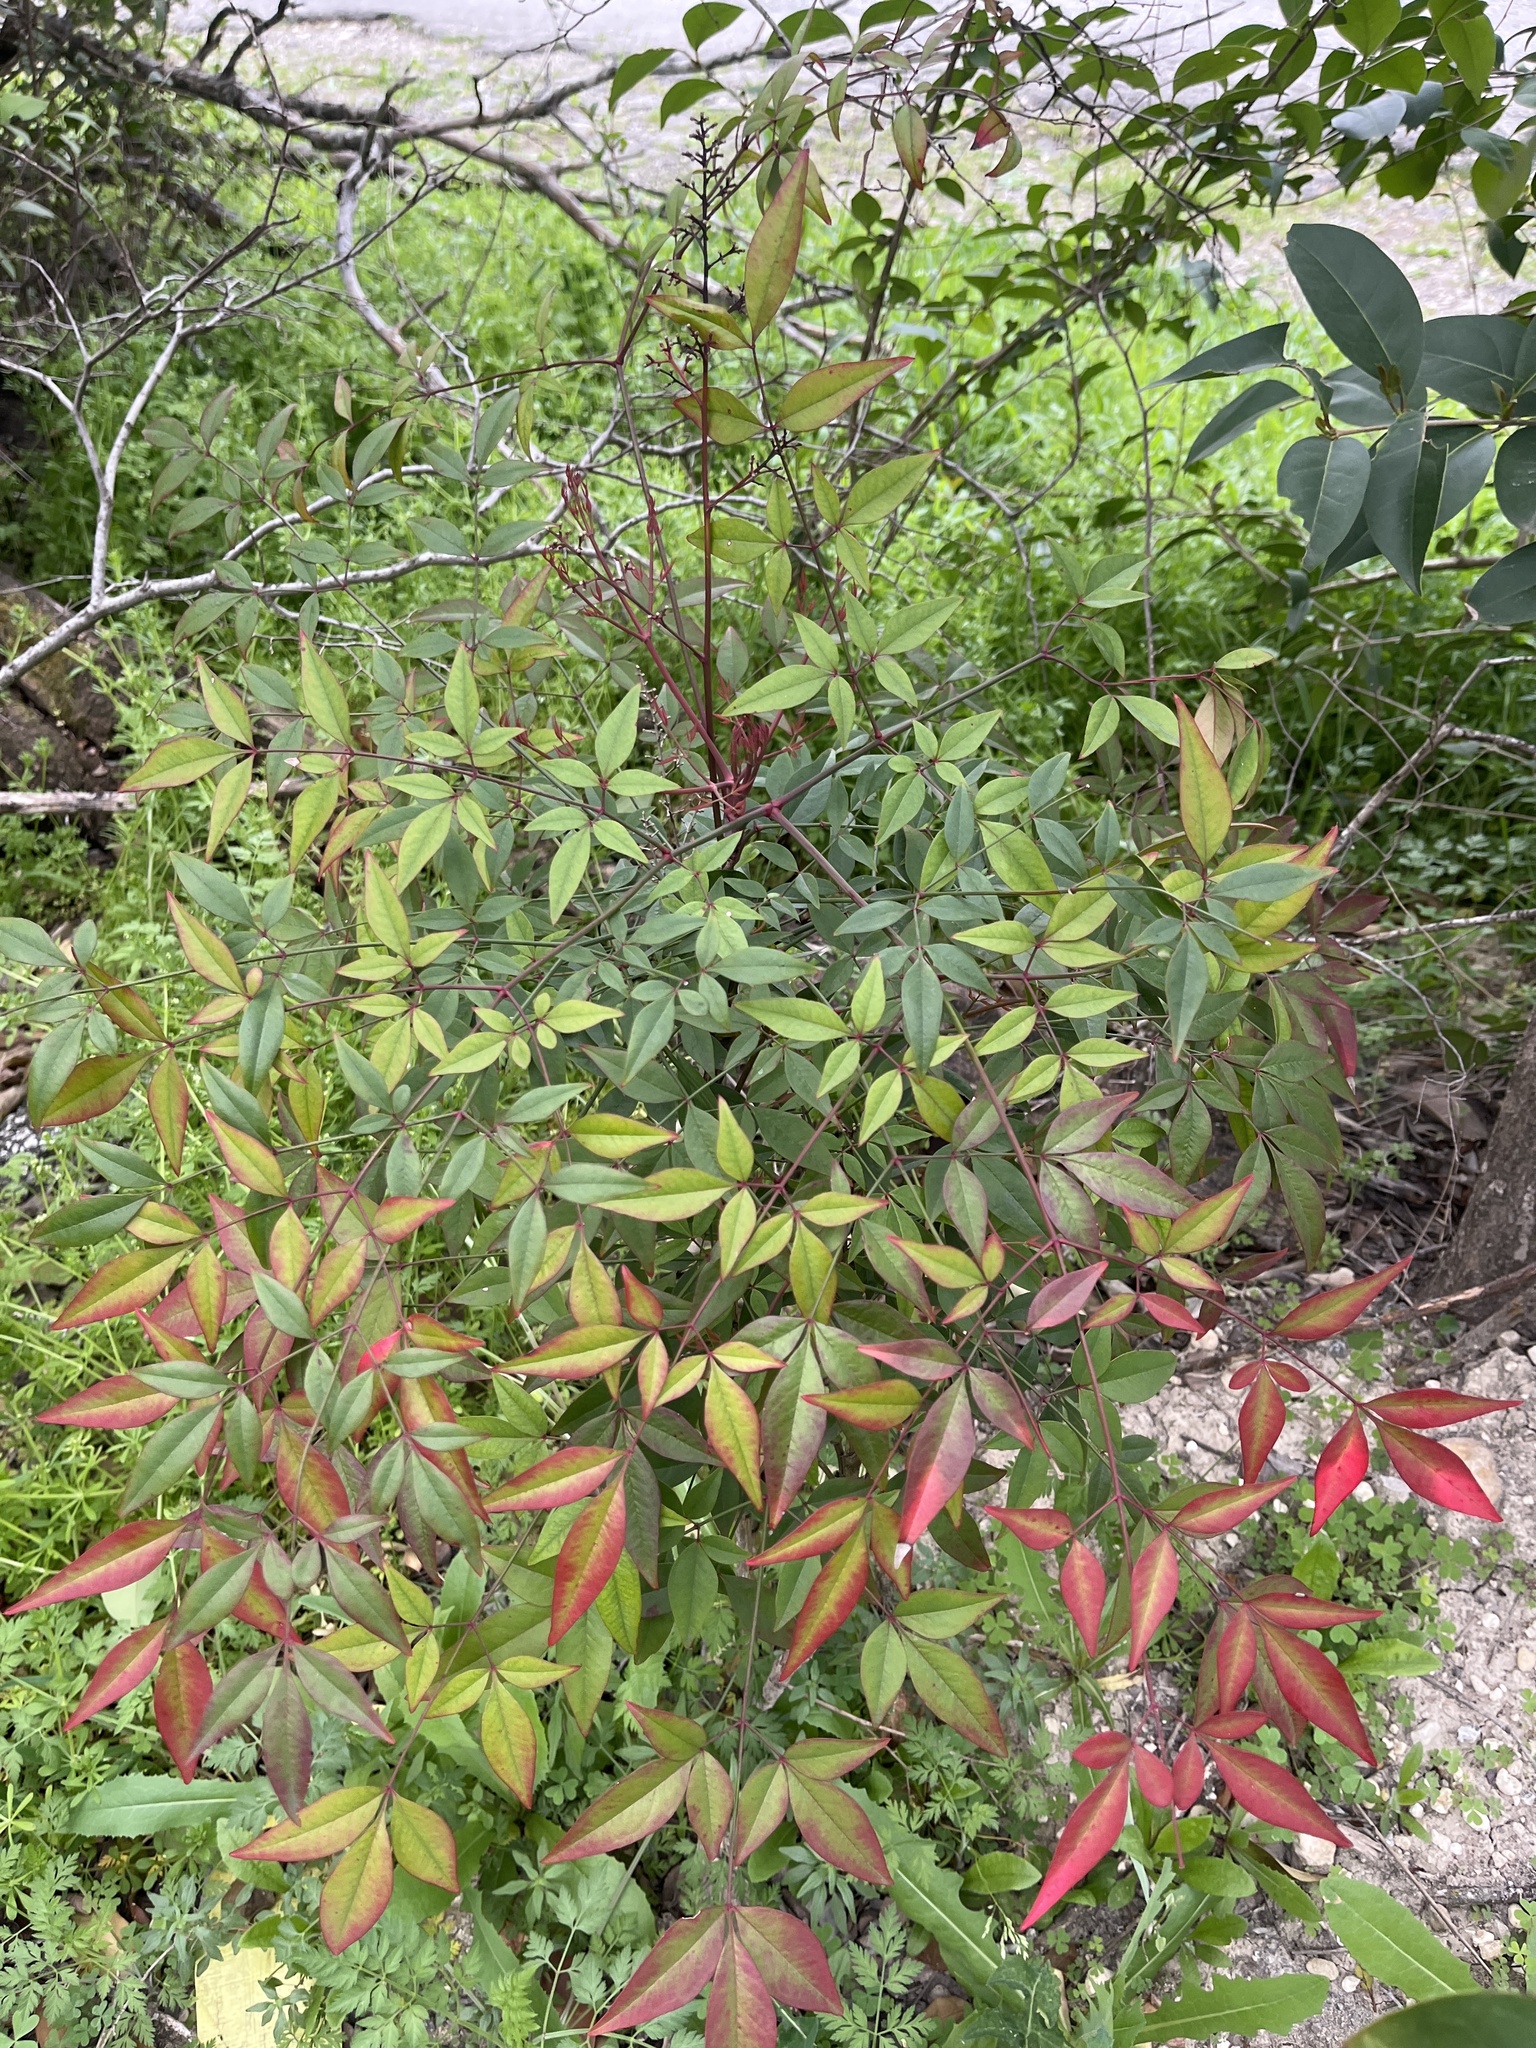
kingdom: Plantae
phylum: Tracheophyta
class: Magnoliopsida
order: Ranunculales
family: Berberidaceae
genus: Nandina
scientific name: Nandina domestica
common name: Sacred bamboo
